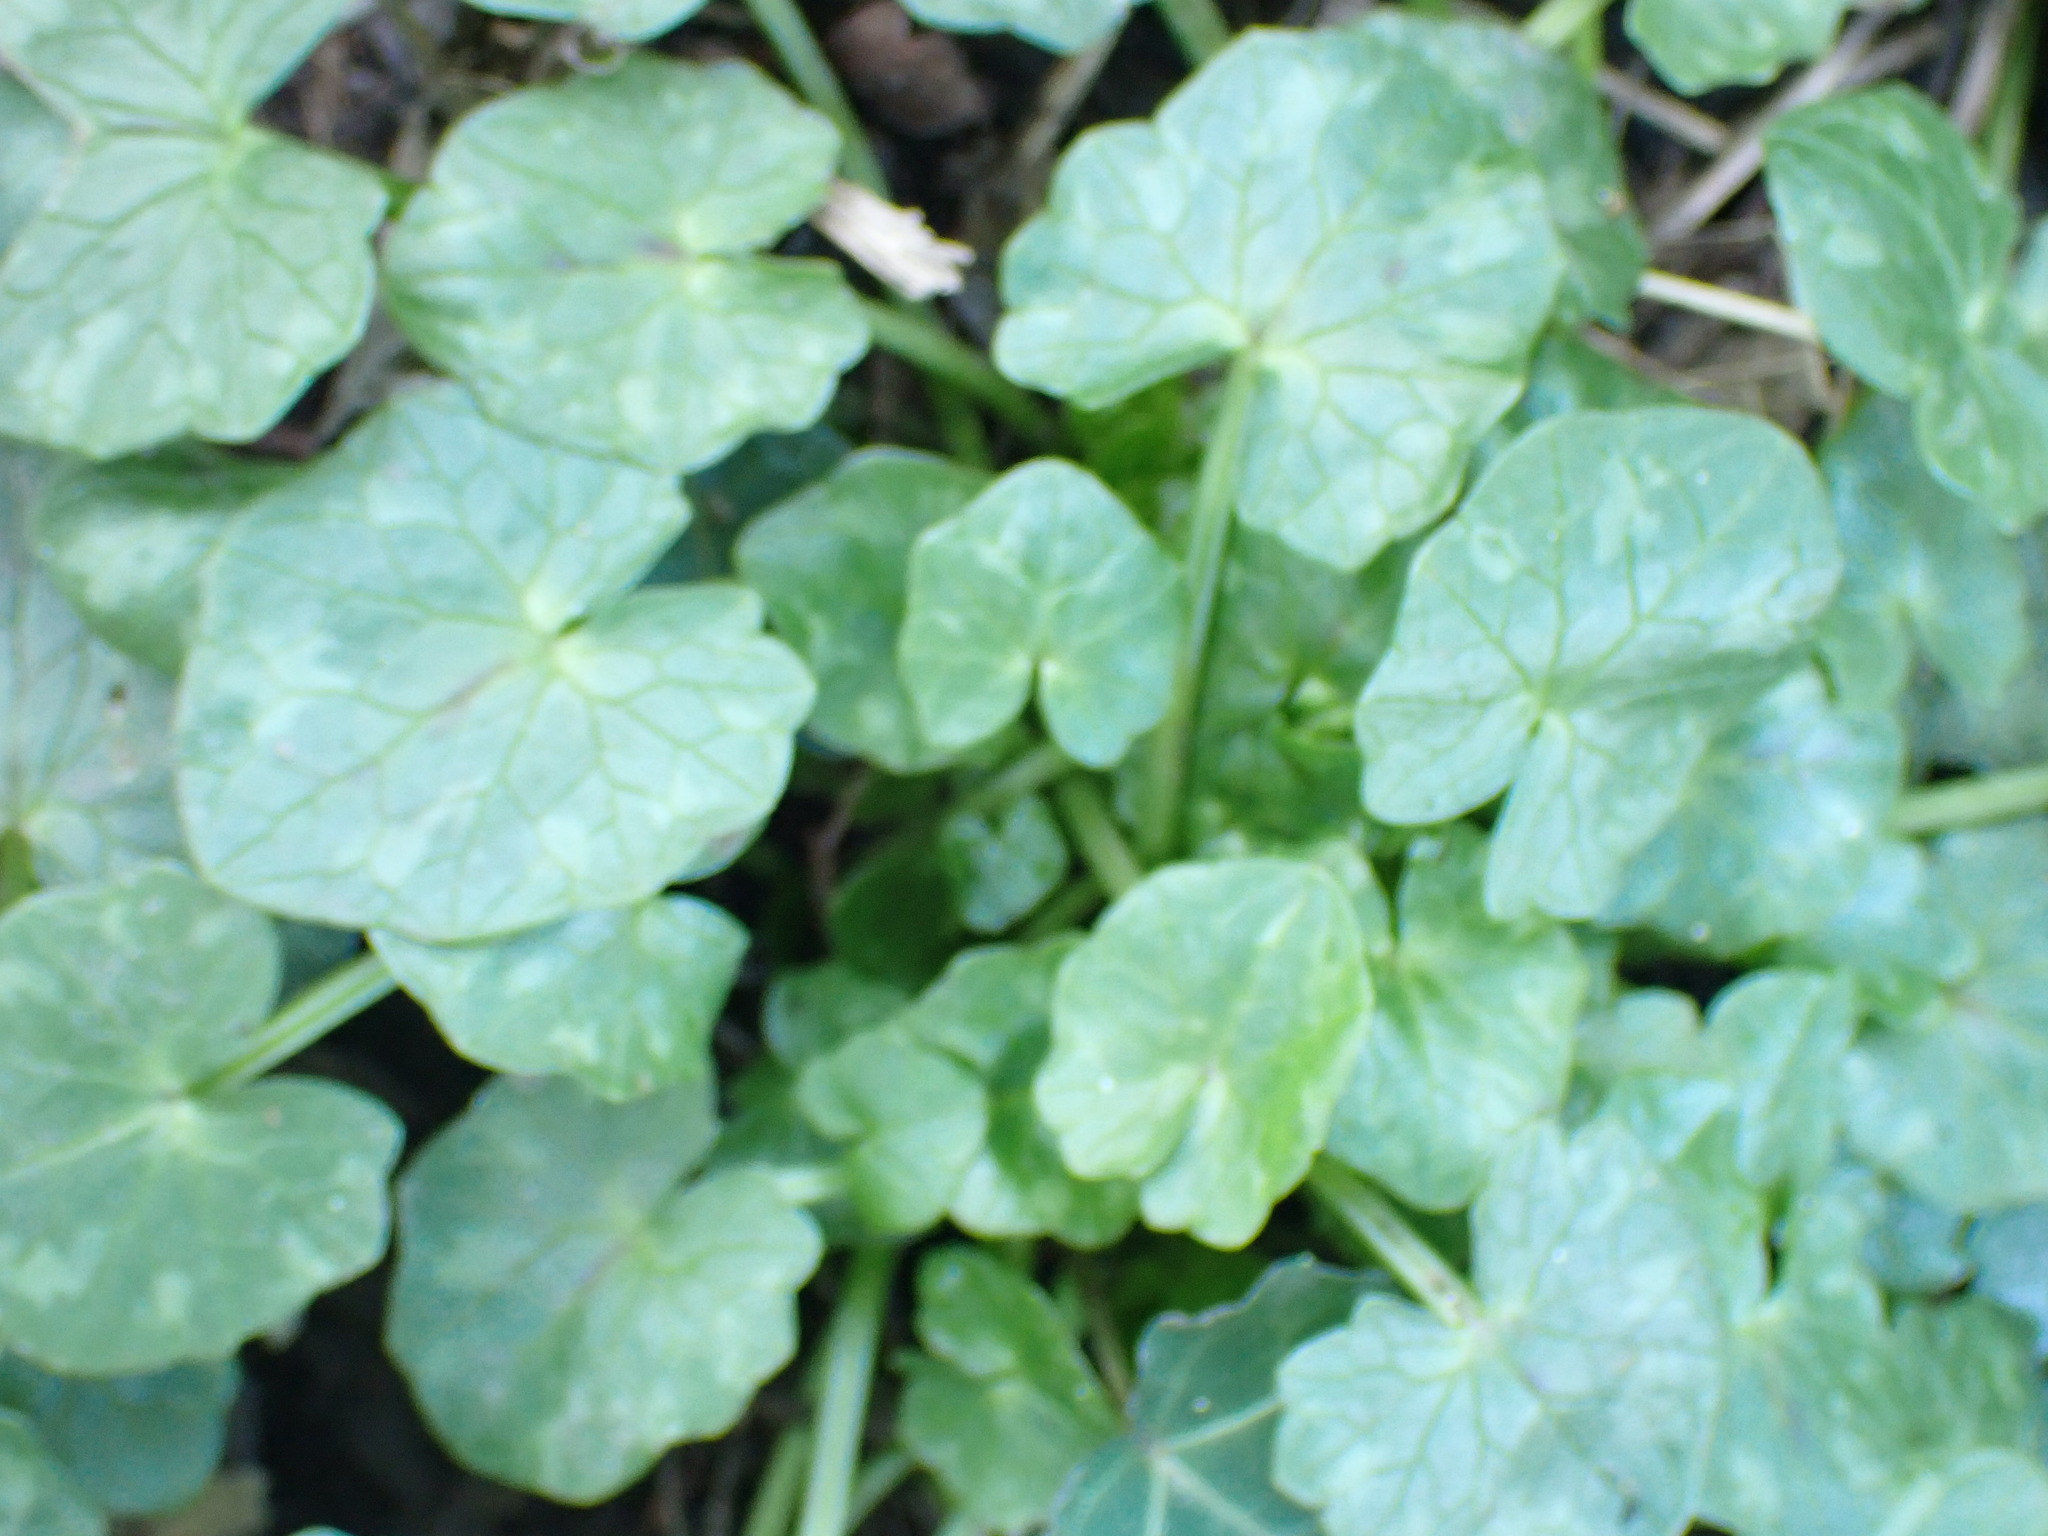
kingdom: Plantae
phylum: Tracheophyta
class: Magnoliopsida
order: Ranunculales
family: Ranunculaceae
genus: Ficaria
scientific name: Ficaria verna
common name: Lesser celandine
